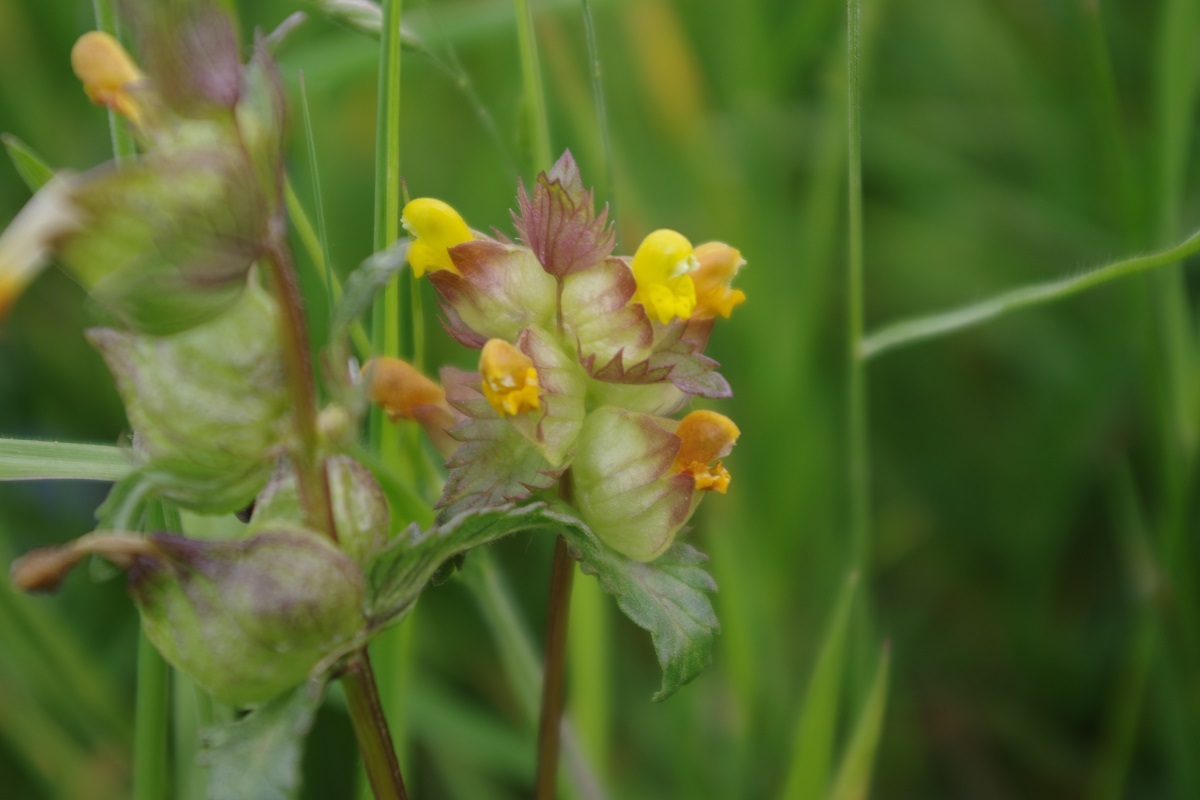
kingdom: Plantae
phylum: Tracheophyta
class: Magnoliopsida
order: Lamiales
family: Orobanchaceae
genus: Rhinanthus
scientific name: Rhinanthus minor
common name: Yellow-rattle
